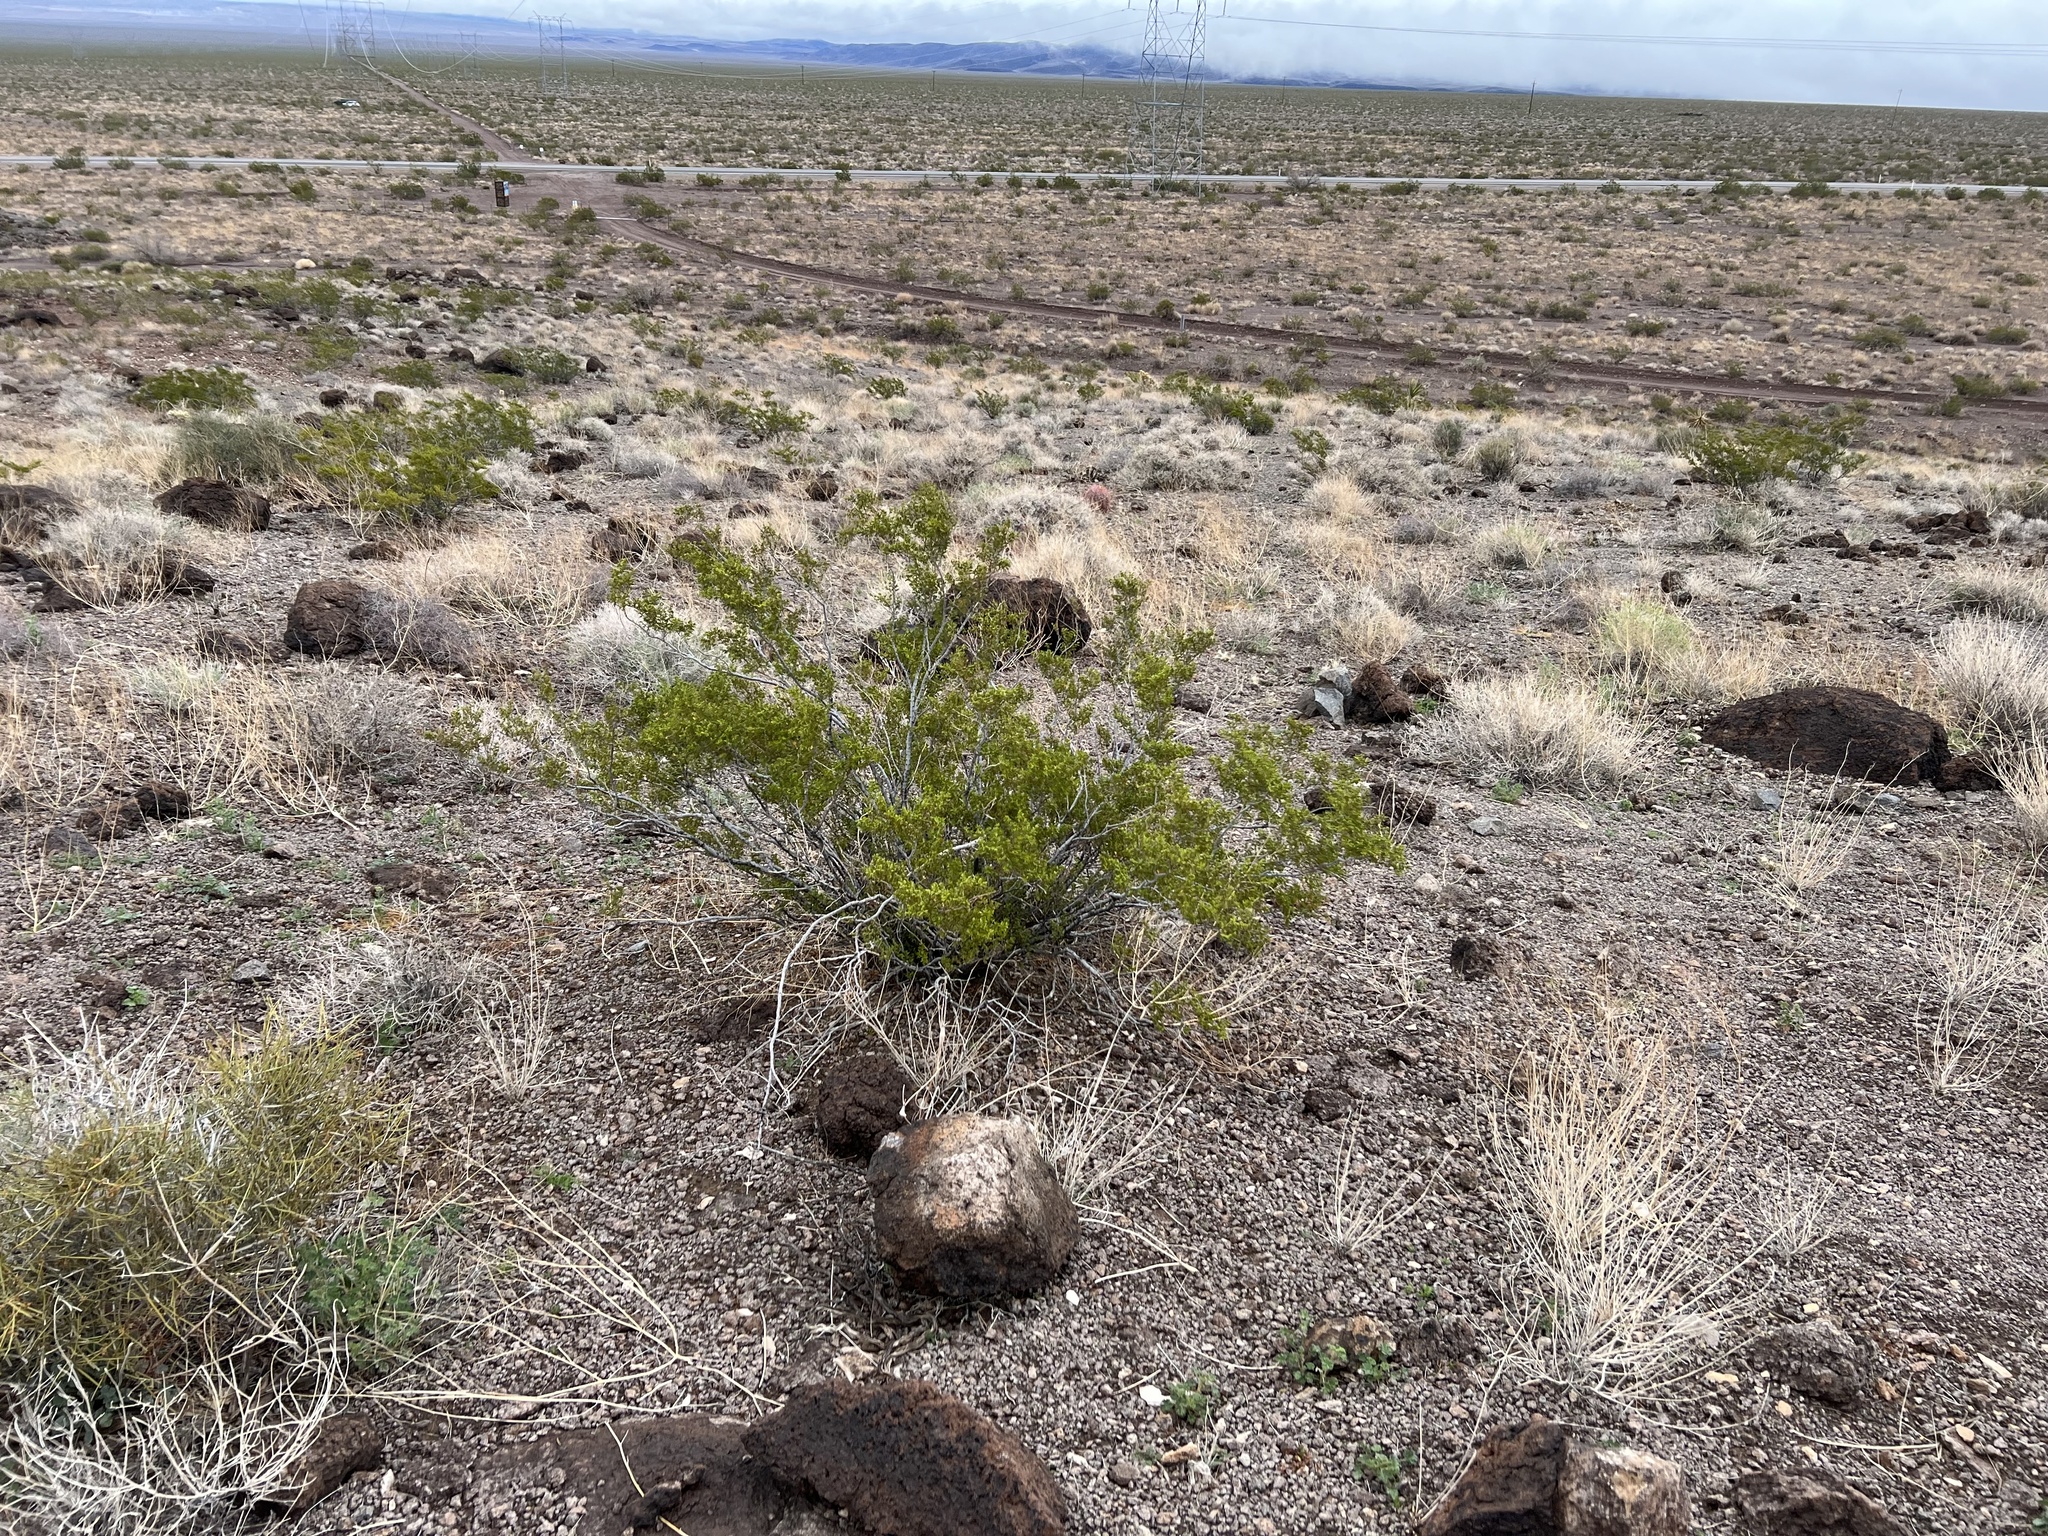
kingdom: Plantae
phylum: Tracheophyta
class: Magnoliopsida
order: Zygophyllales
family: Zygophyllaceae
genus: Larrea
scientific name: Larrea tridentata
